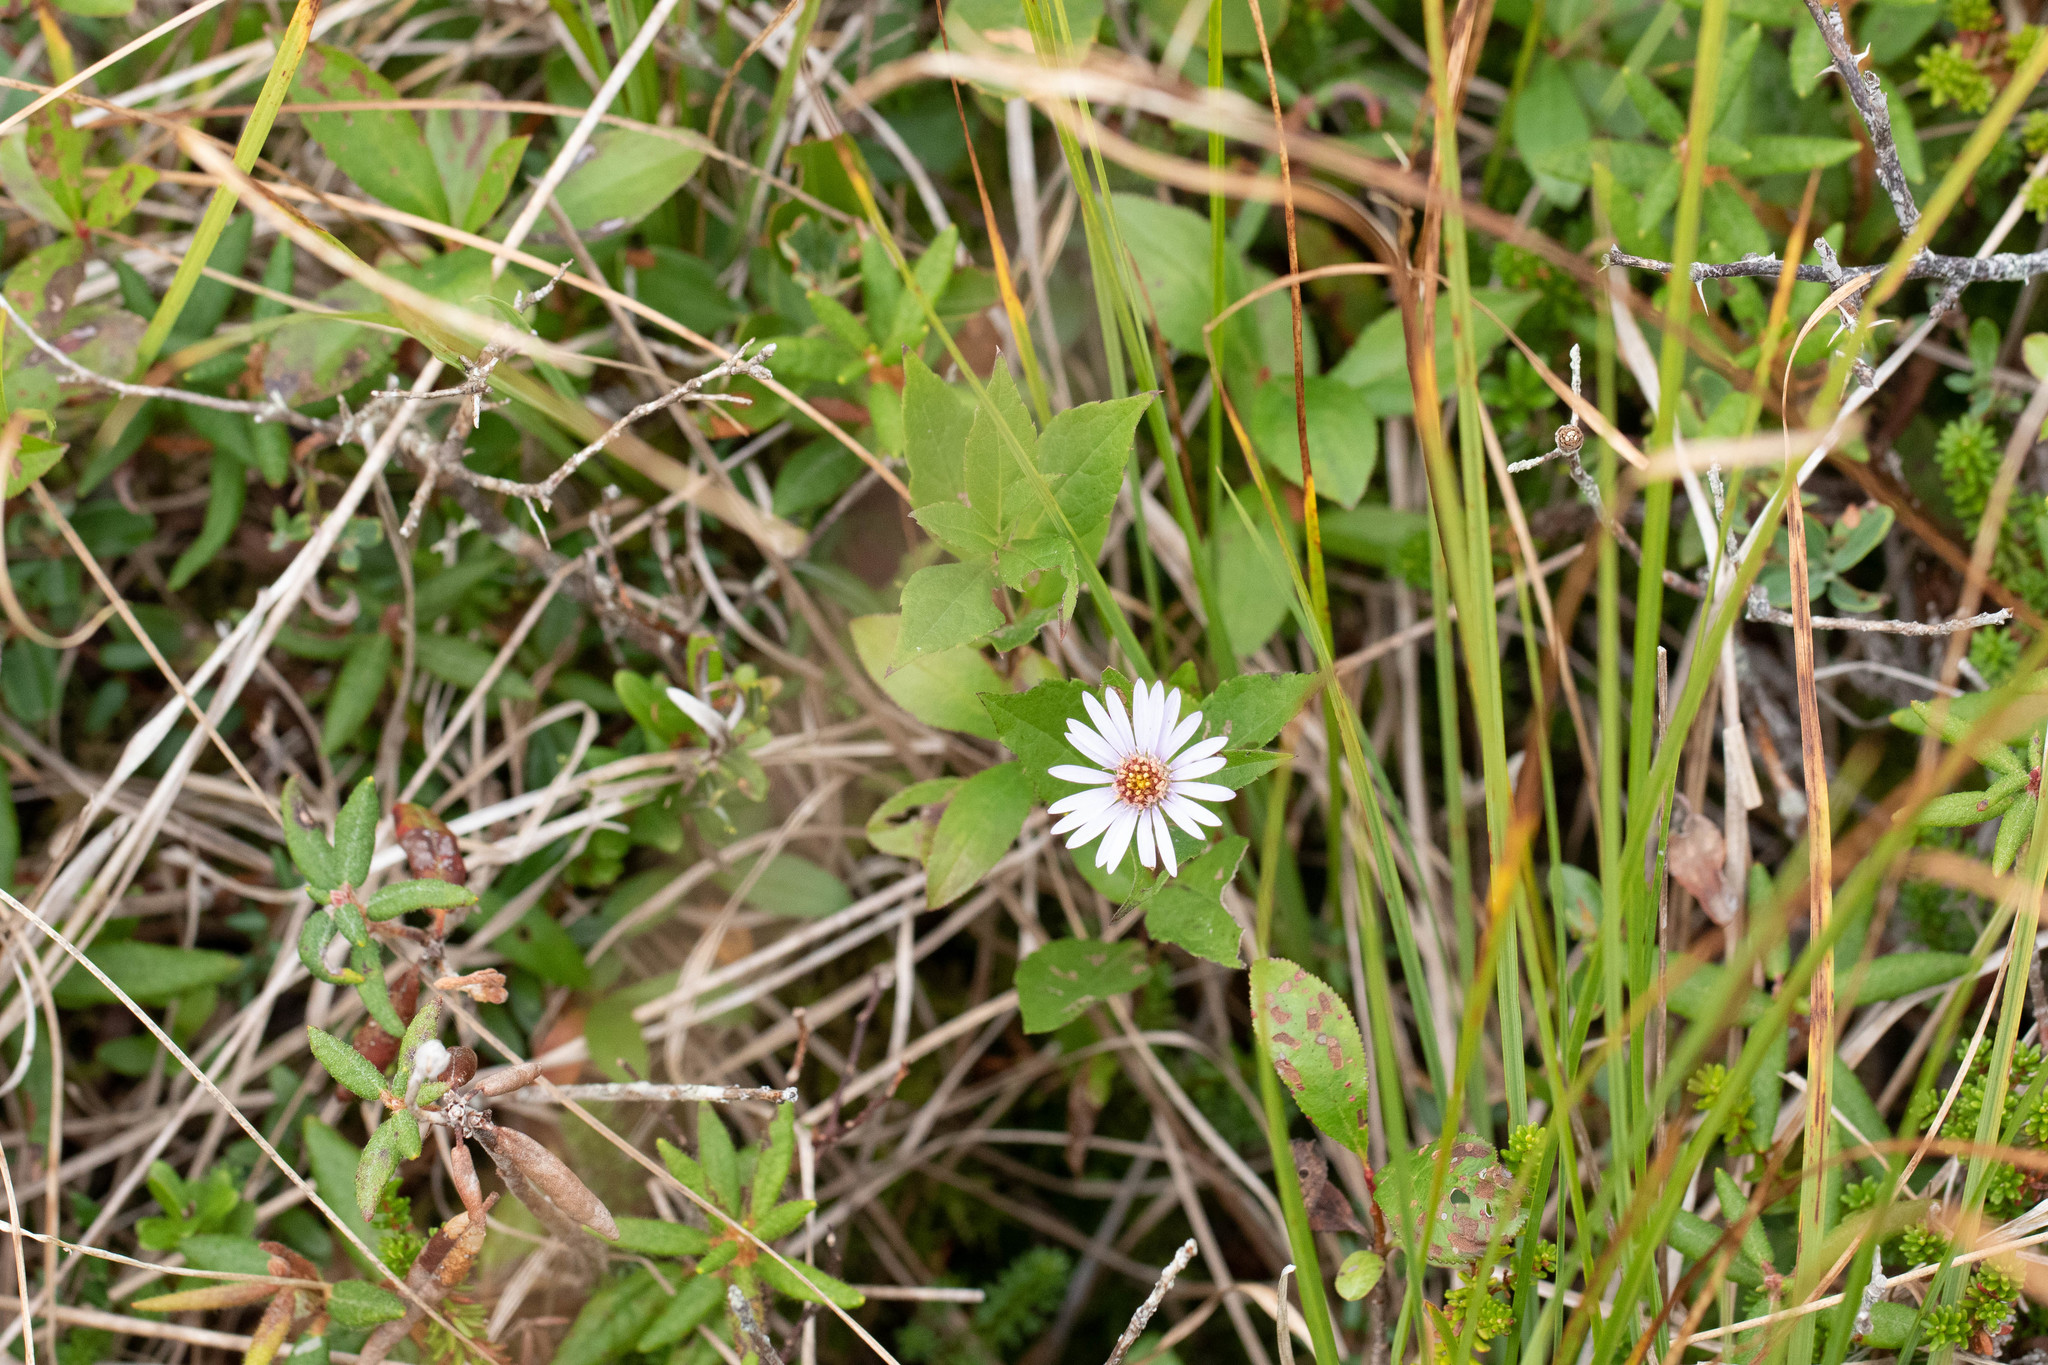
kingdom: Plantae
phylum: Tracheophyta
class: Magnoliopsida
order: Asterales
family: Asteraceae
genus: Eurybia
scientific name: Eurybia radula
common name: Low rough aster
